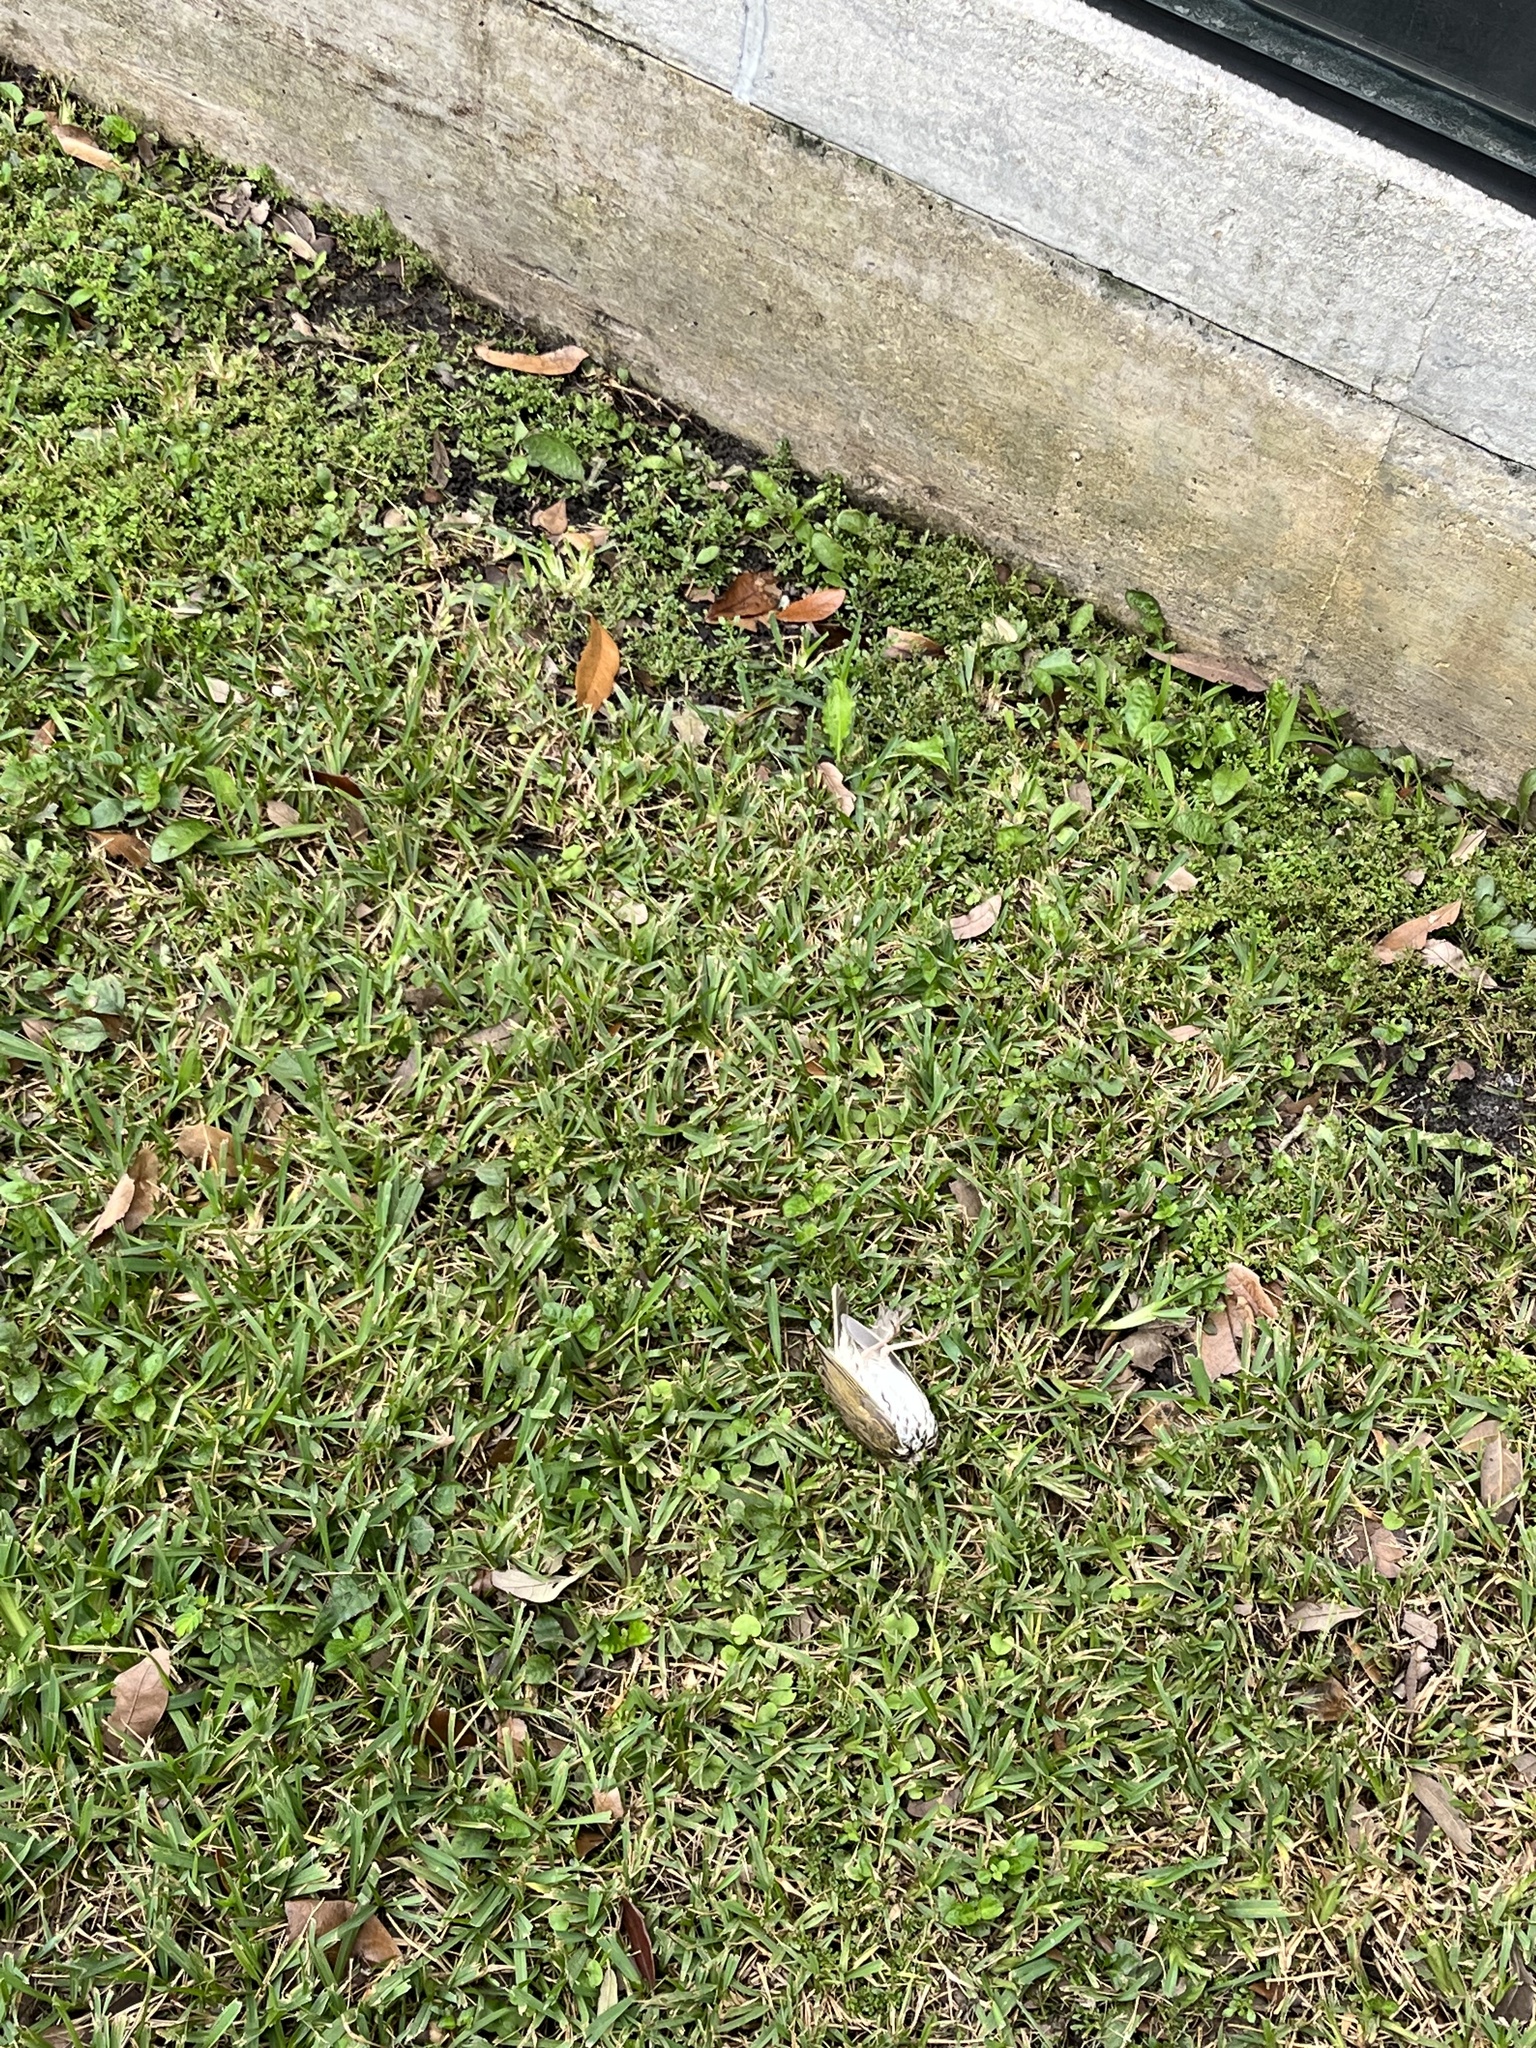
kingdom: Animalia
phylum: Chordata
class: Aves
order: Passeriformes
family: Parulidae
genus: Seiurus
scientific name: Seiurus aurocapilla
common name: Ovenbird
